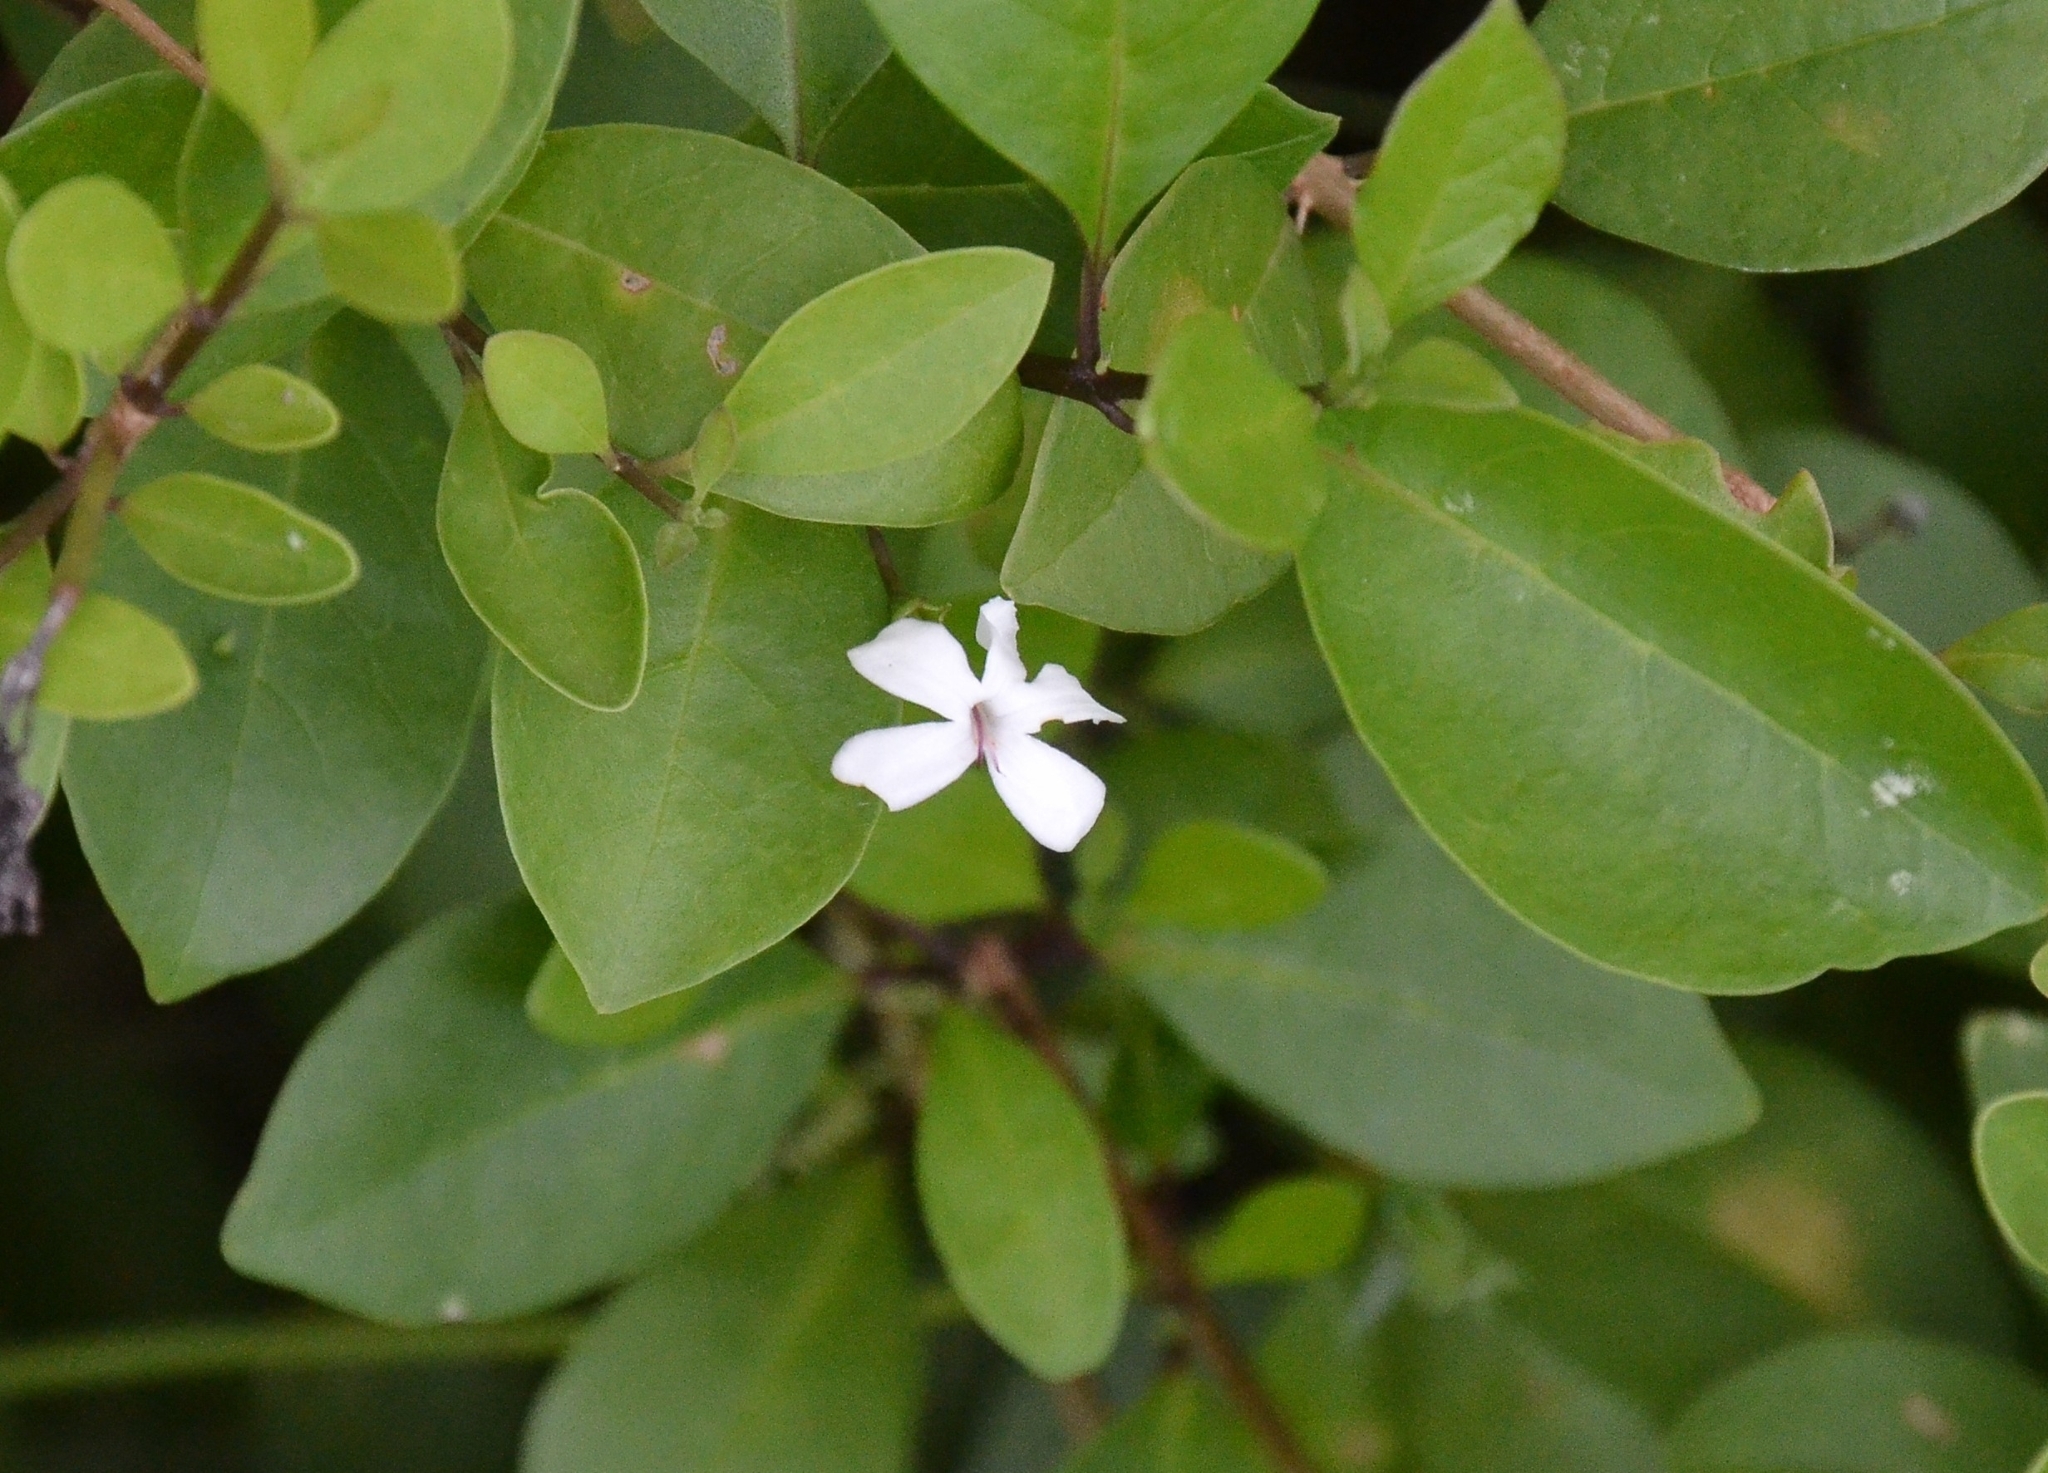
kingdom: Plantae
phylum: Tracheophyta
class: Magnoliopsida
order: Lamiales
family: Lamiaceae
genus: Volkameria
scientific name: Volkameria inermis
